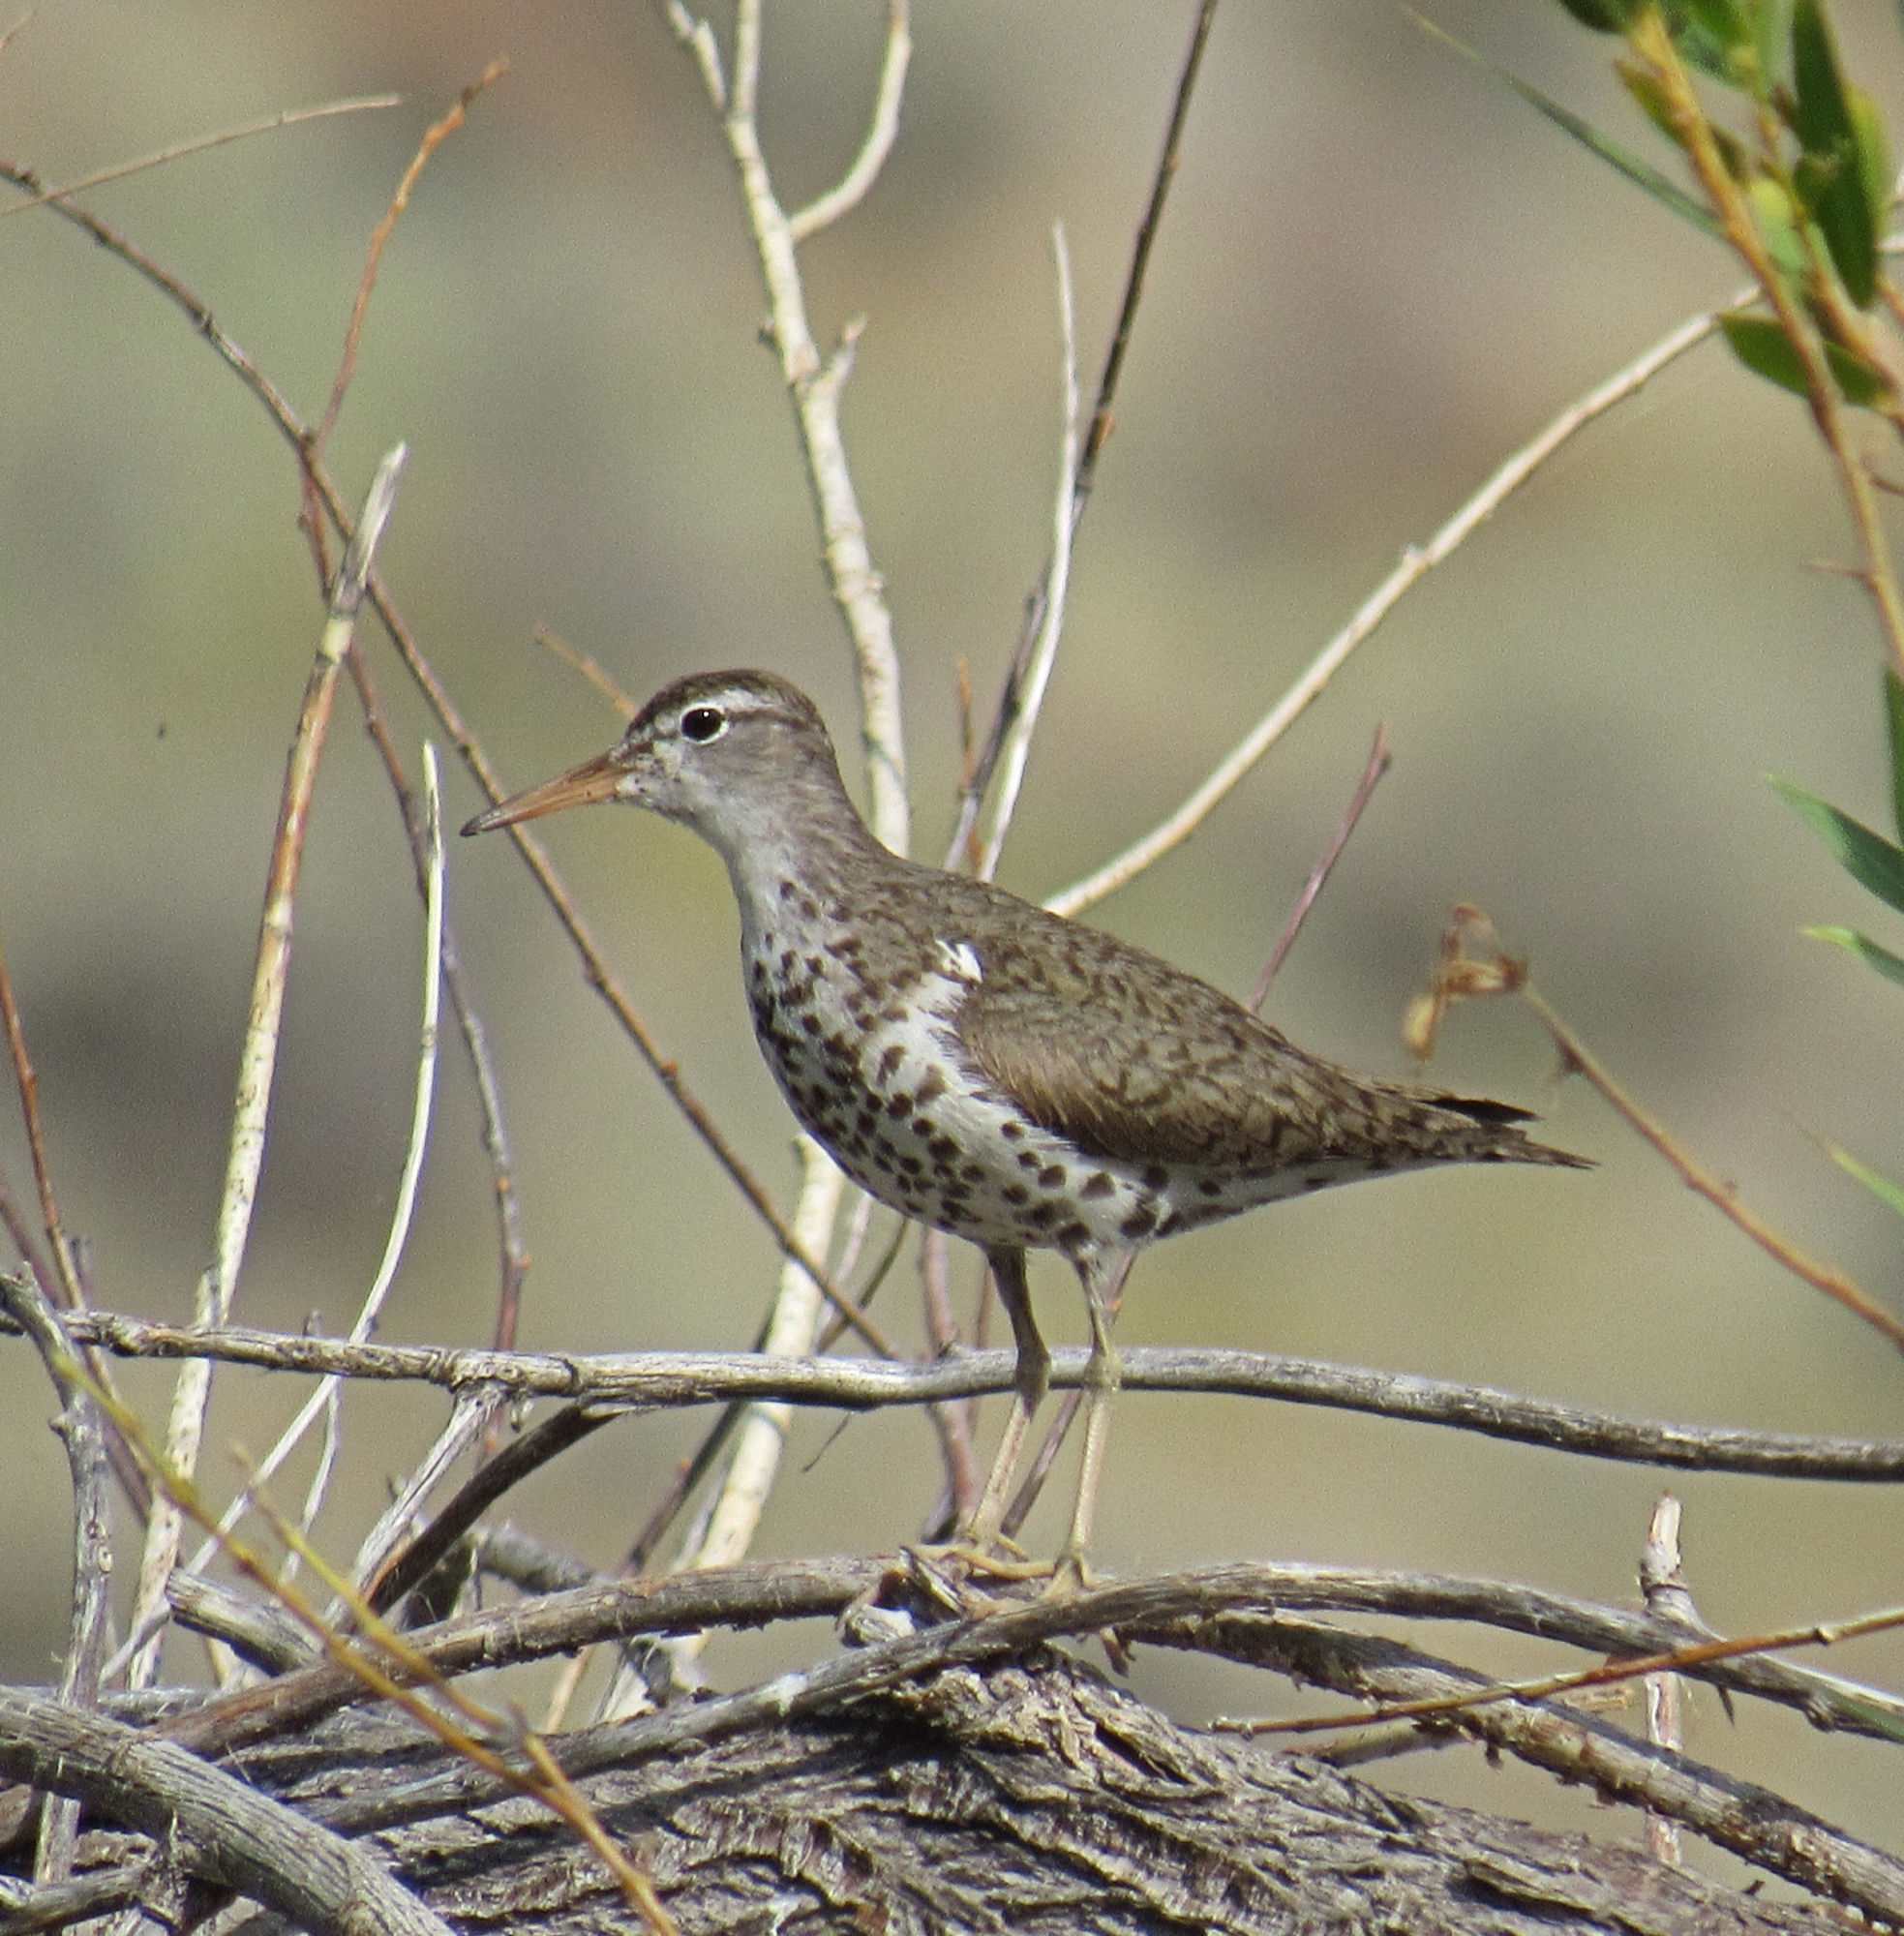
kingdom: Animalia
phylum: Chordata
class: Aves
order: Charadriiformes
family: Scolopacidae
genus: Actitis
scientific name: Actitis macularius
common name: Spotted sandpiper
